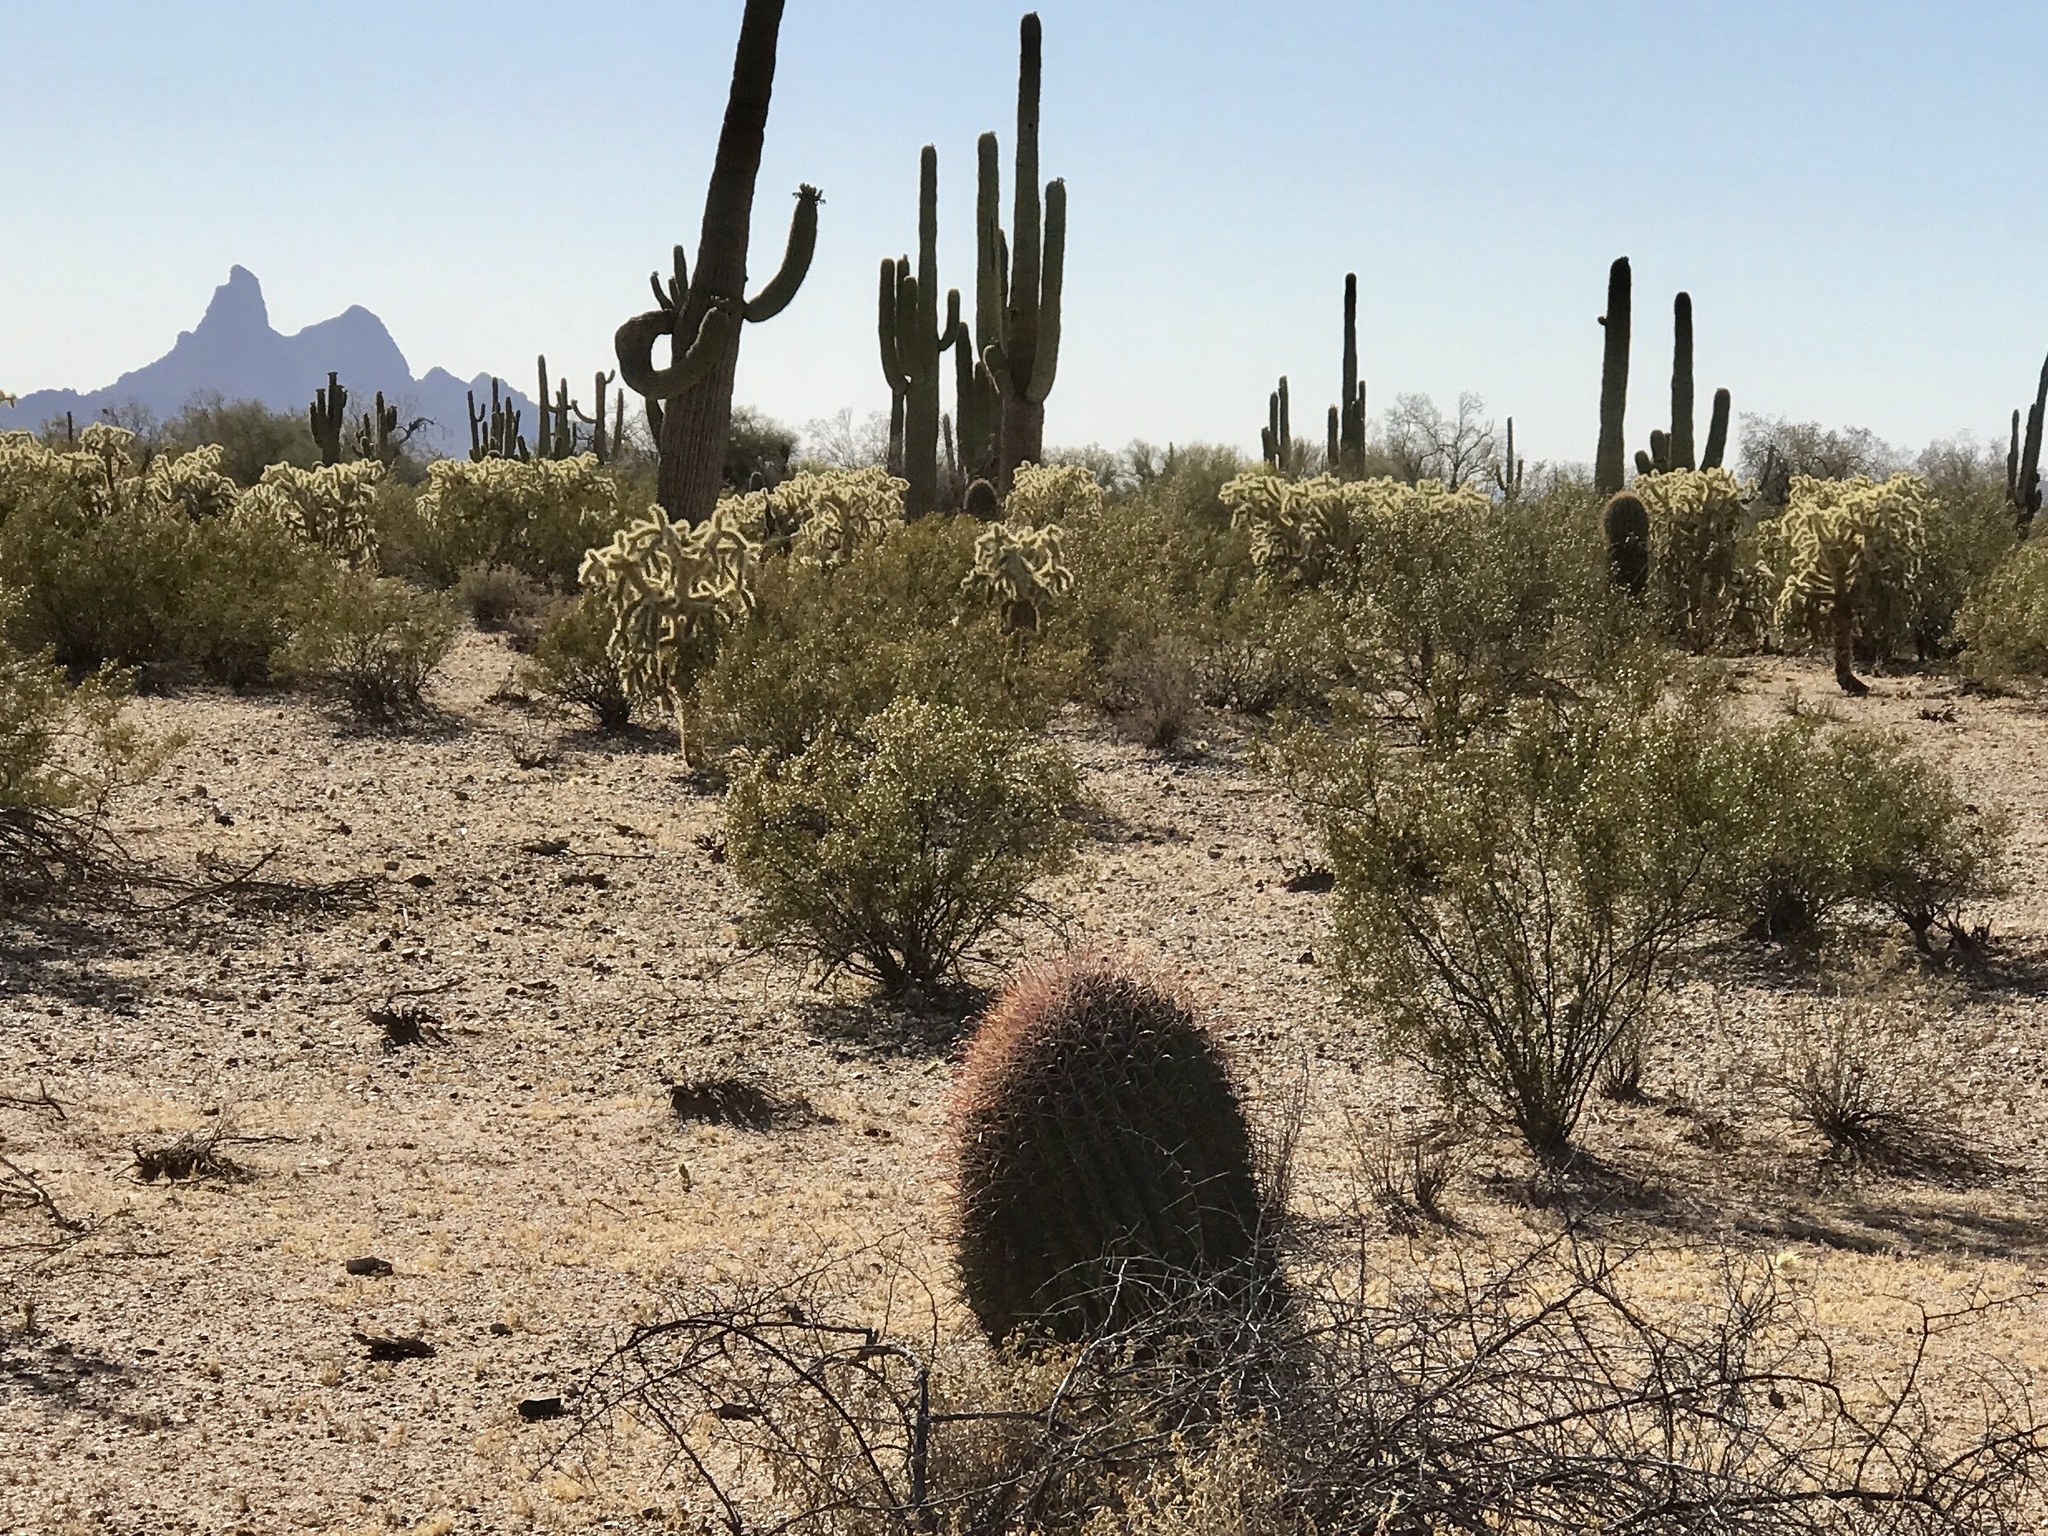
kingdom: Plantae
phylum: Tracheophyta
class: Magnoliopsida
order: Caryophyllales
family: Cactaceae
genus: Ferocactus
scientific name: Ferocactus wislizeni
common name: Candy barrel cactus
